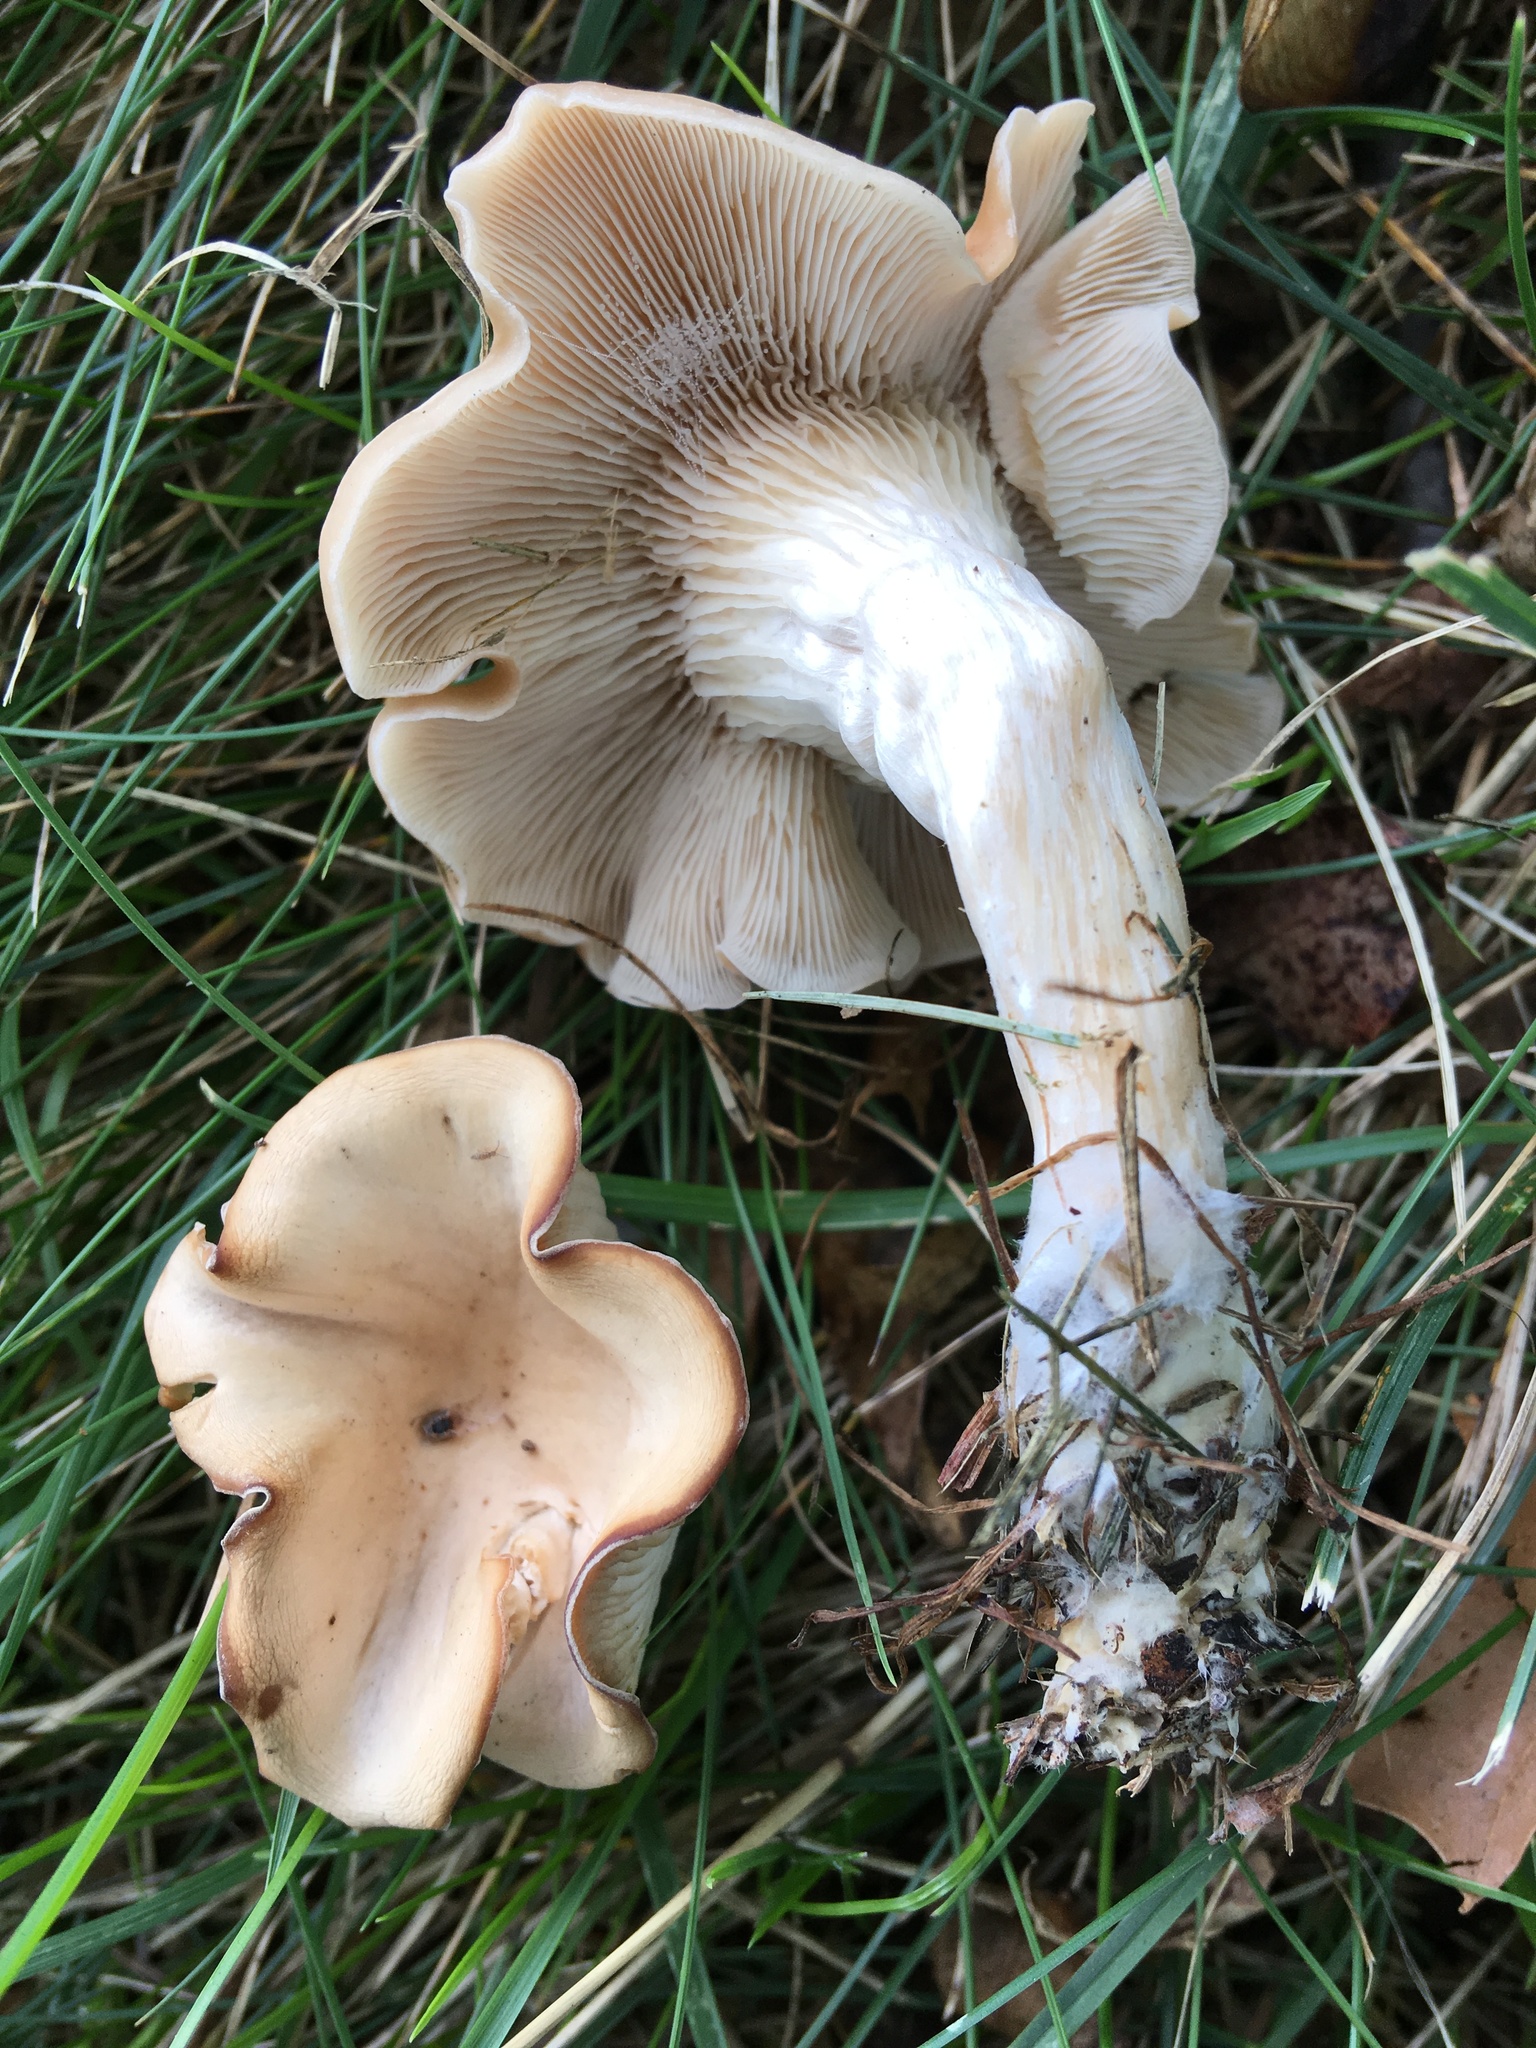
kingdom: Fungi
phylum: Basidiomycota
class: Agaricomycetes
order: Agaricales
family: Pleurotaceae
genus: Hohenbuehelia
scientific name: Hohenbuehelia petaloides
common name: Shoehorn oyster
